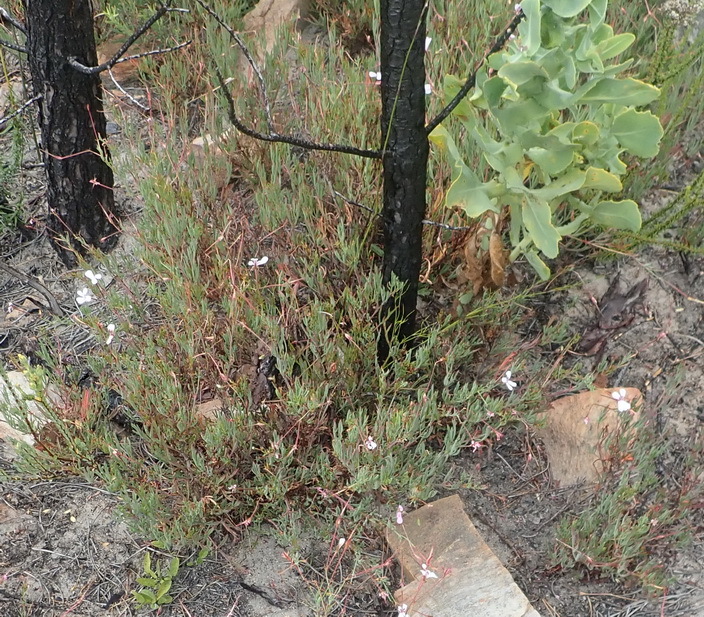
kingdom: Plantae
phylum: Tracheophyta
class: Magnoliopsida
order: Geraniales
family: Geraniaceae
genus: Pelargonium
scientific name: Pelargonium laevigatum
